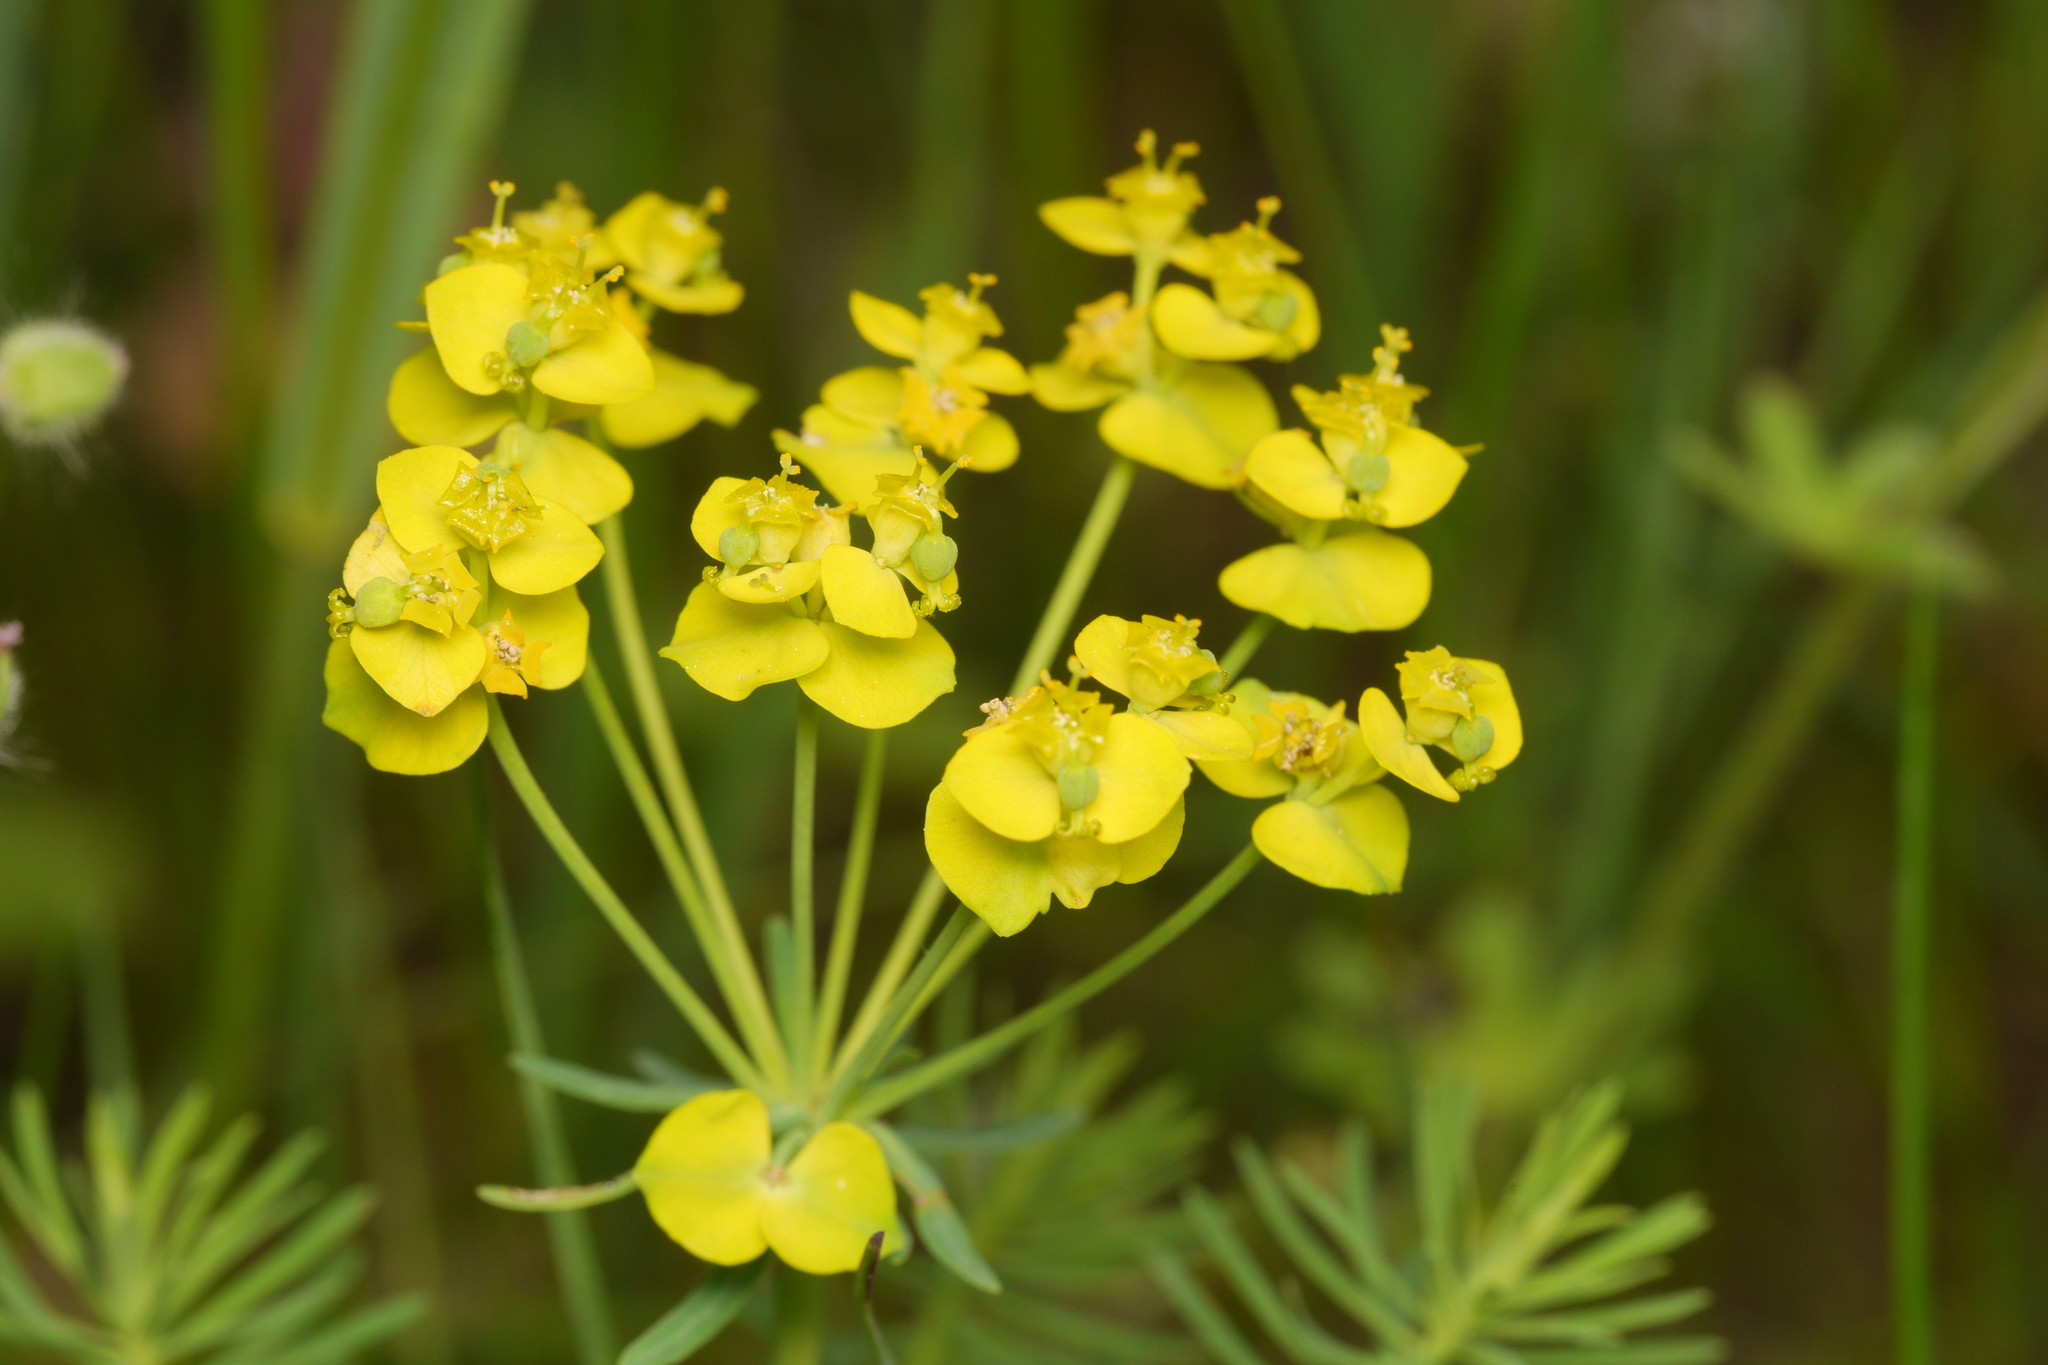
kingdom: Plantae
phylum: Tracheophyta
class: Magnoliopsida
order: Malpighiales
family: Euphorbiaceae
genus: Euphorbia
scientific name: Euphorbia cyparissias
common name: Cypress spurge
